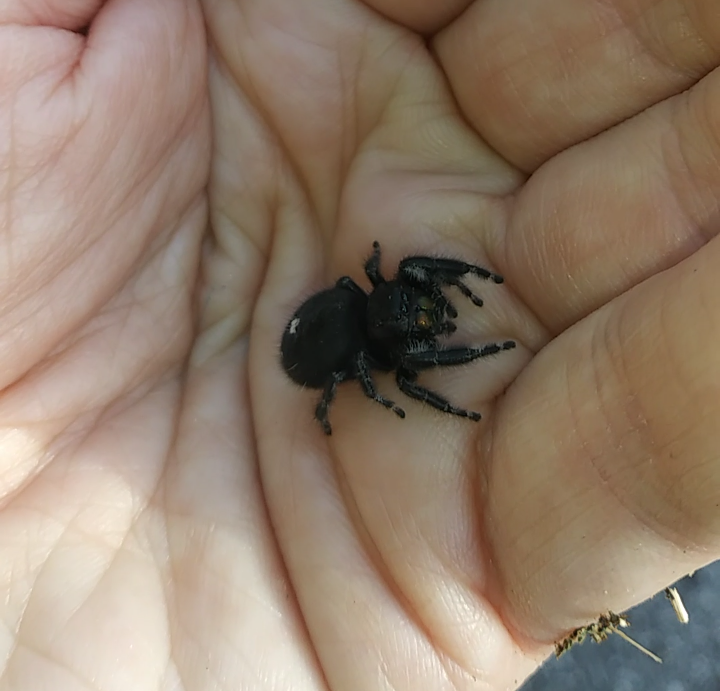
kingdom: Animalia
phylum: Arthropoda
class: Arachnida
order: Araneae
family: Salticidae
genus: Phidippus
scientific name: Phidippus audax
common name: Bold jumper
